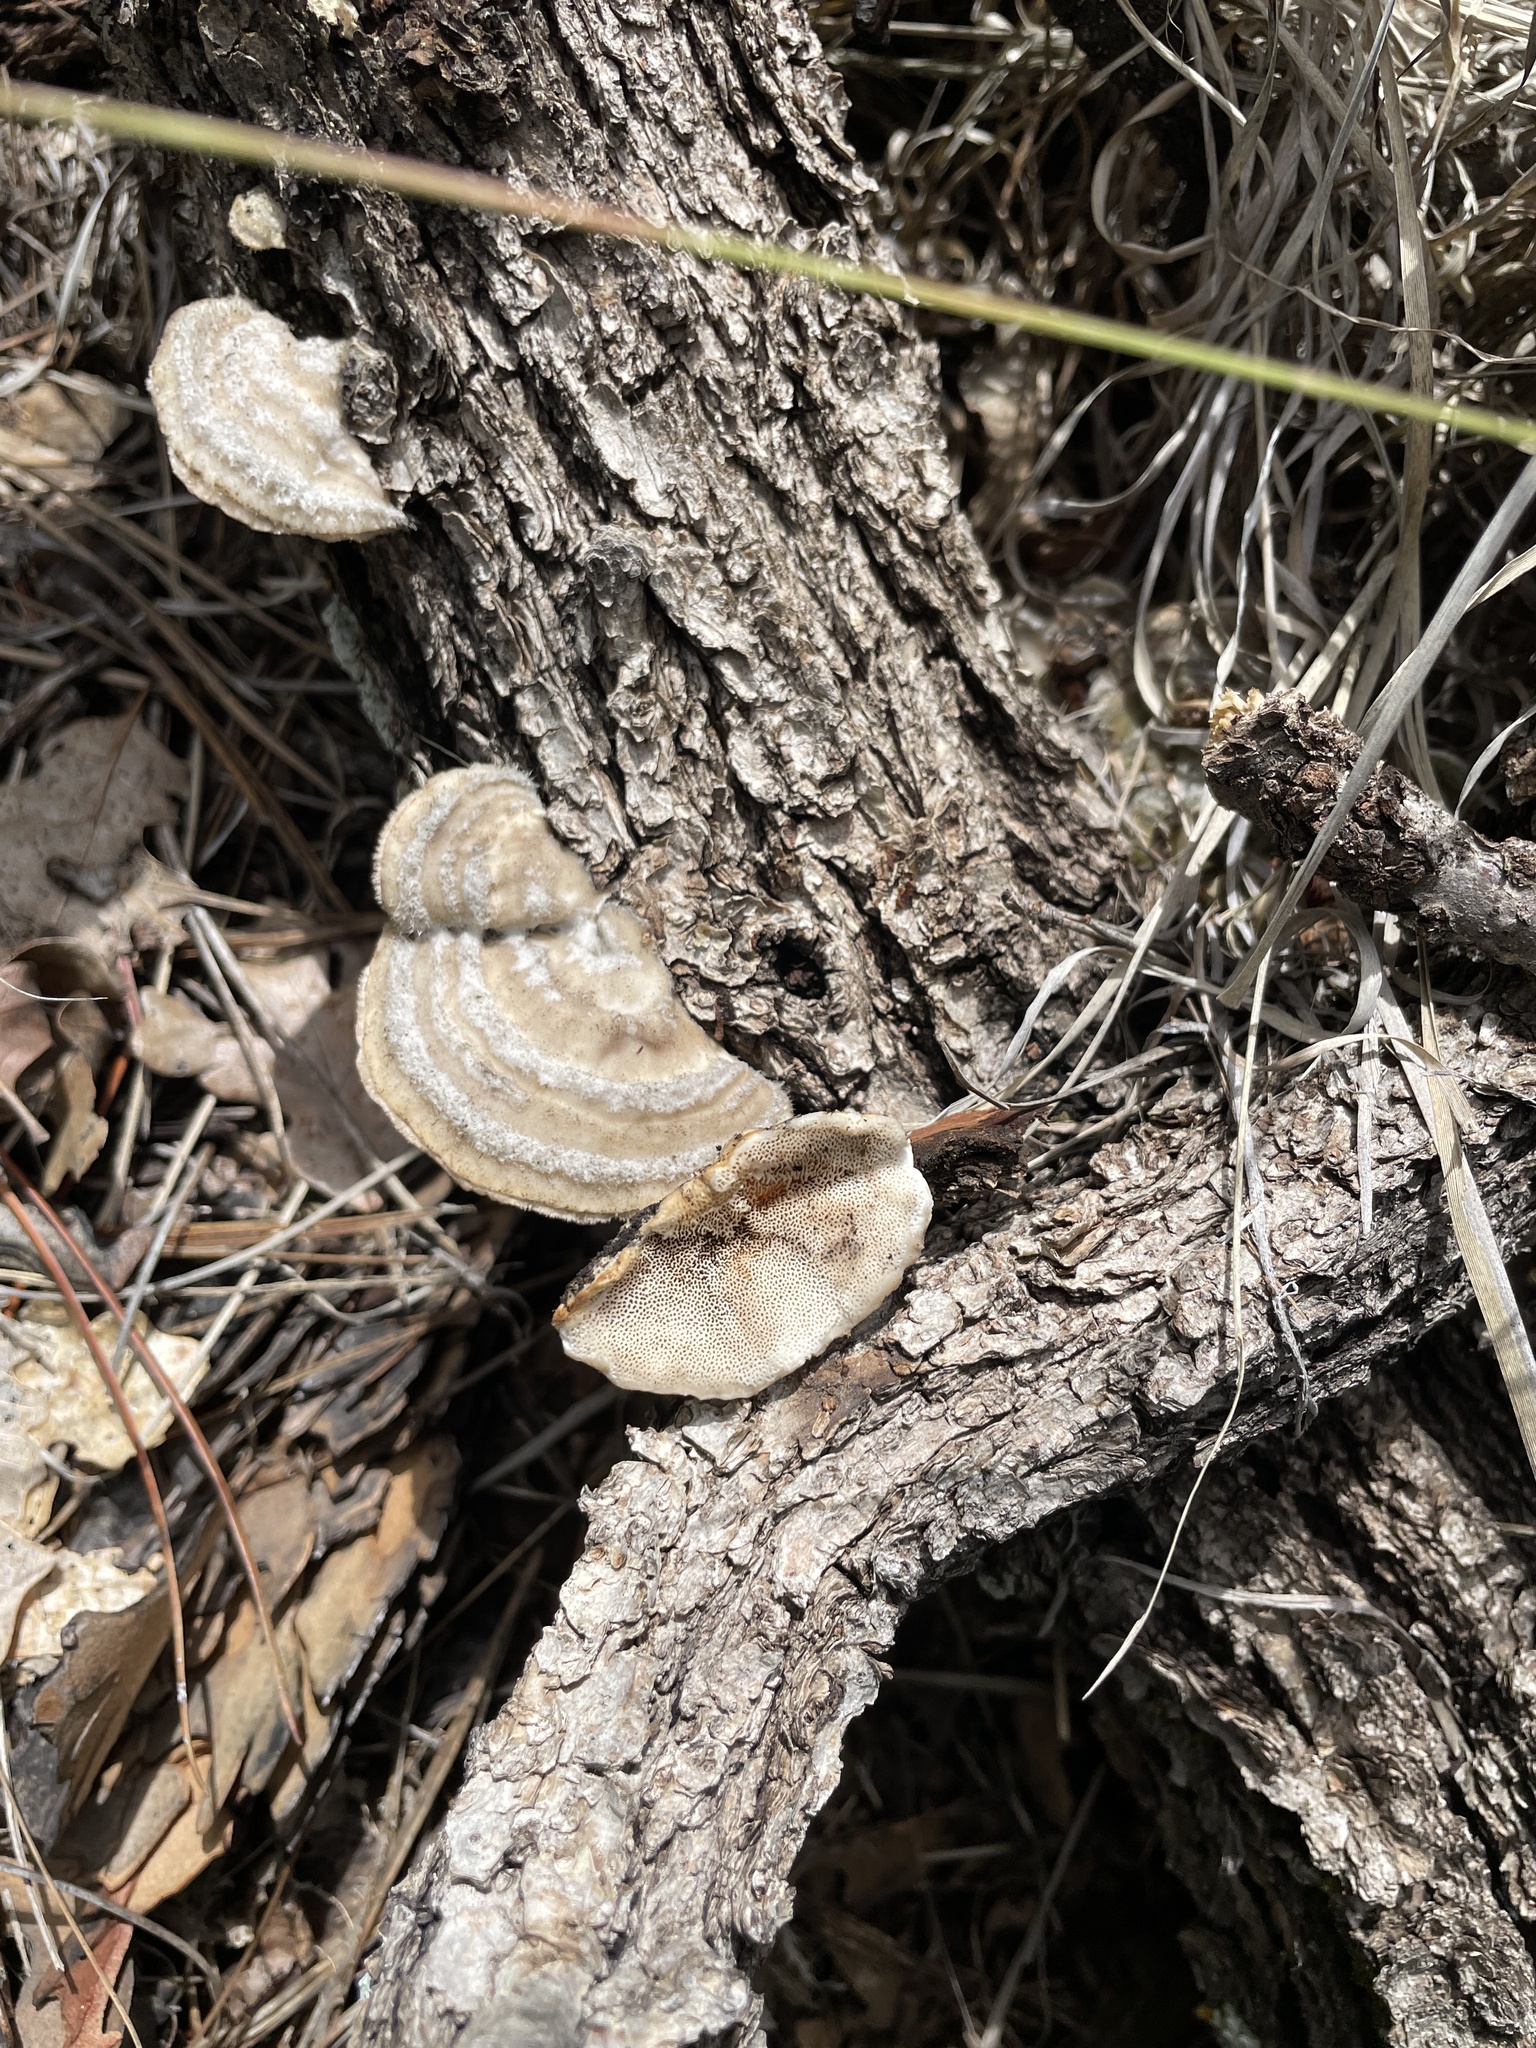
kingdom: Fungi
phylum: Basidiomycota
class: Agaricomycetes
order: Polyporales
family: Polyporaceae
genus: Trametes
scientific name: Trametes hirsuta
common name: Hairy bracket
